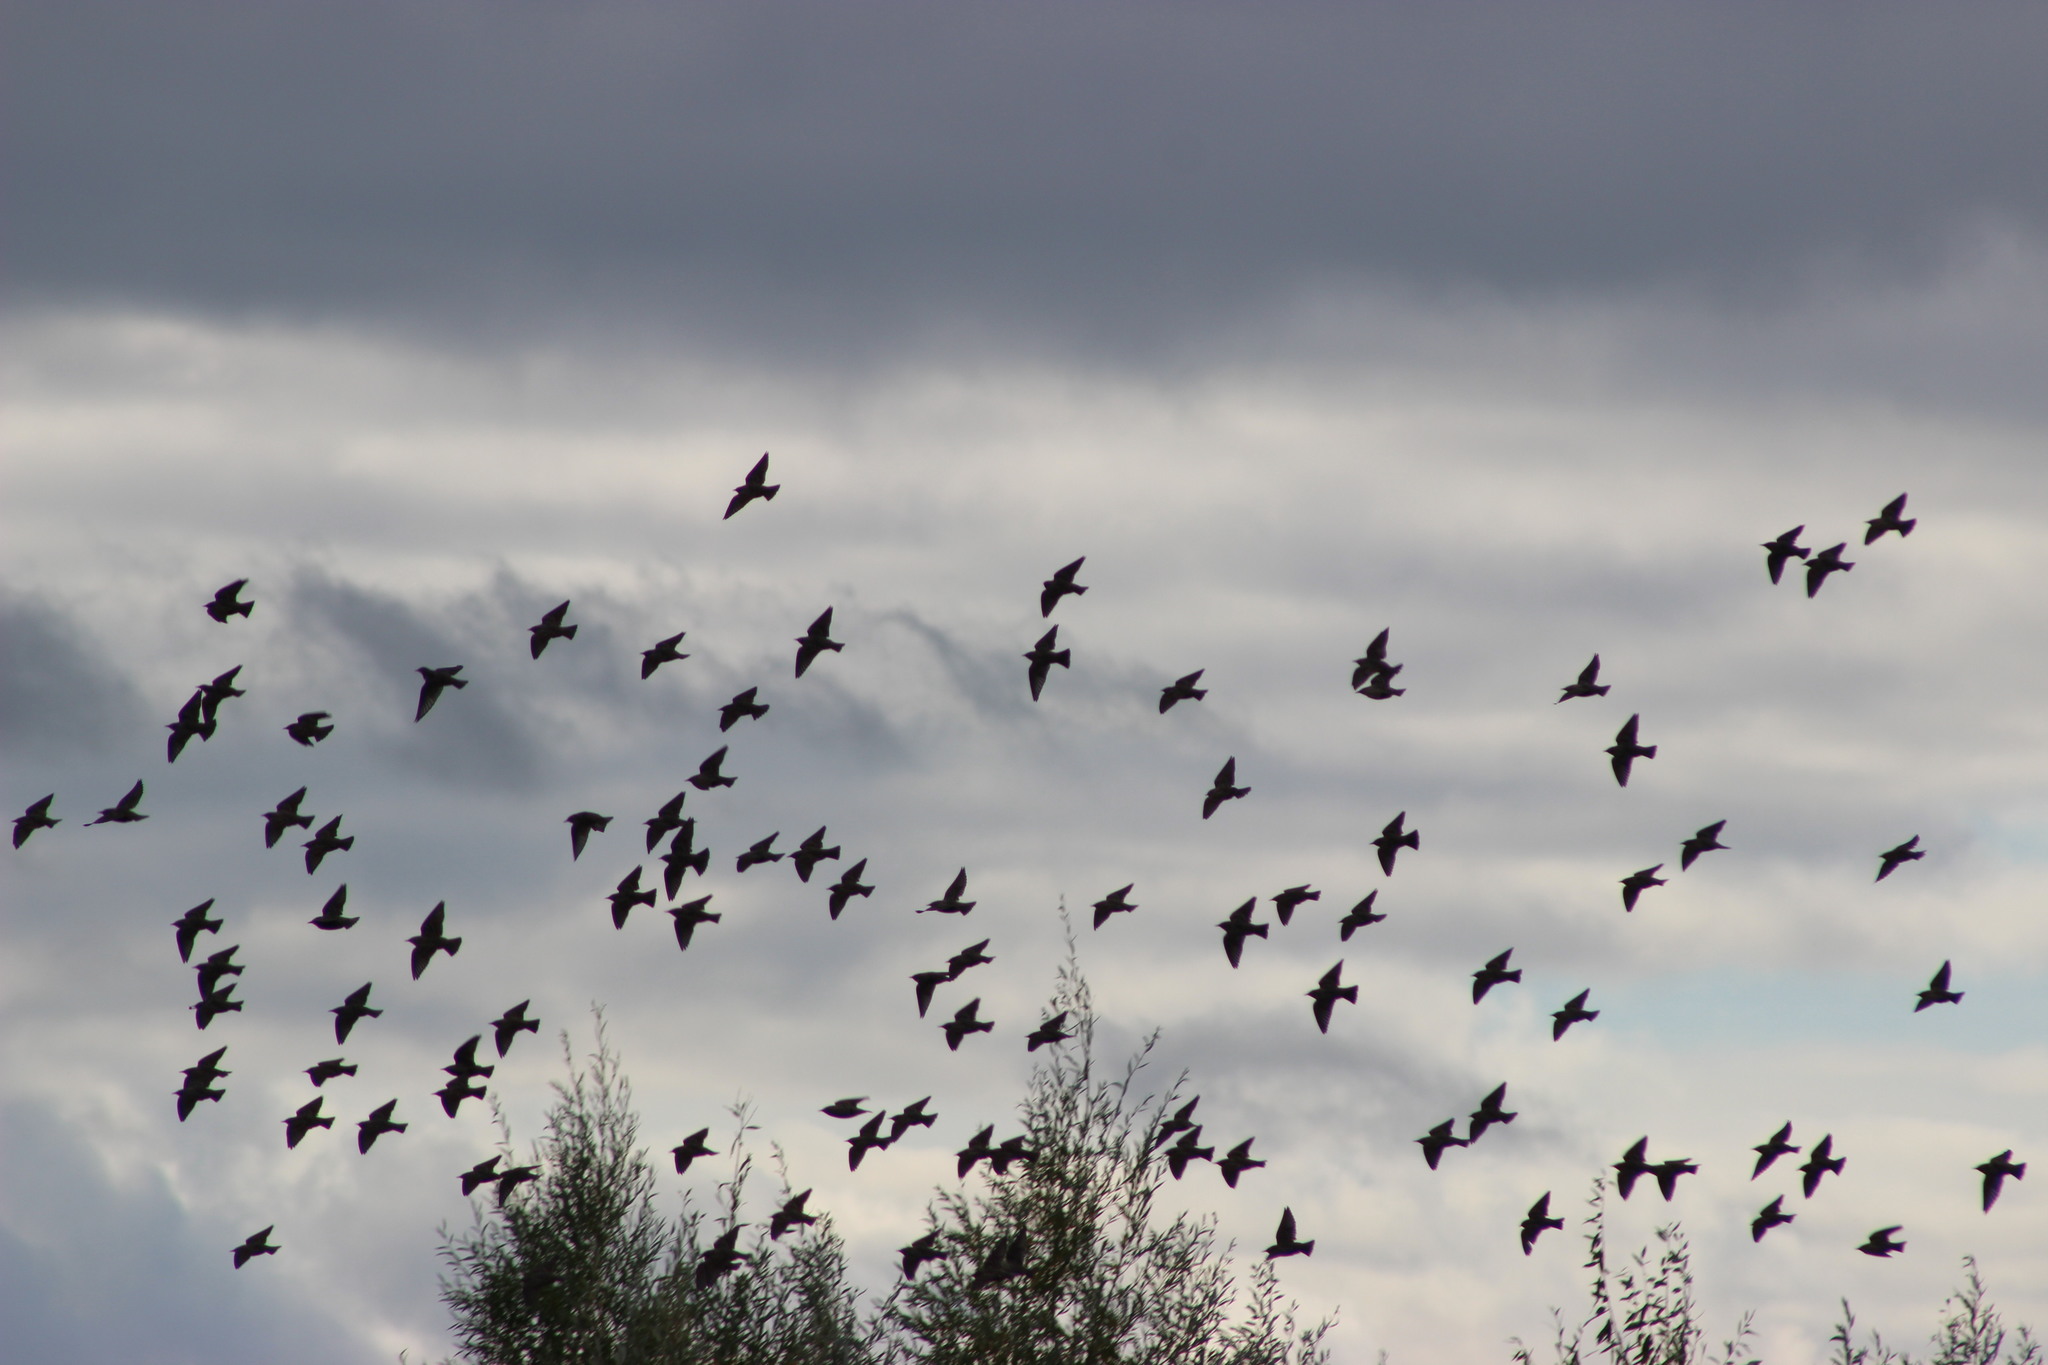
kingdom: Animalia
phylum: Chordata
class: Aves
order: Passeriformes
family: Sturnidae
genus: Sturnus
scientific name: Sturnus vulgaris
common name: Common starling
